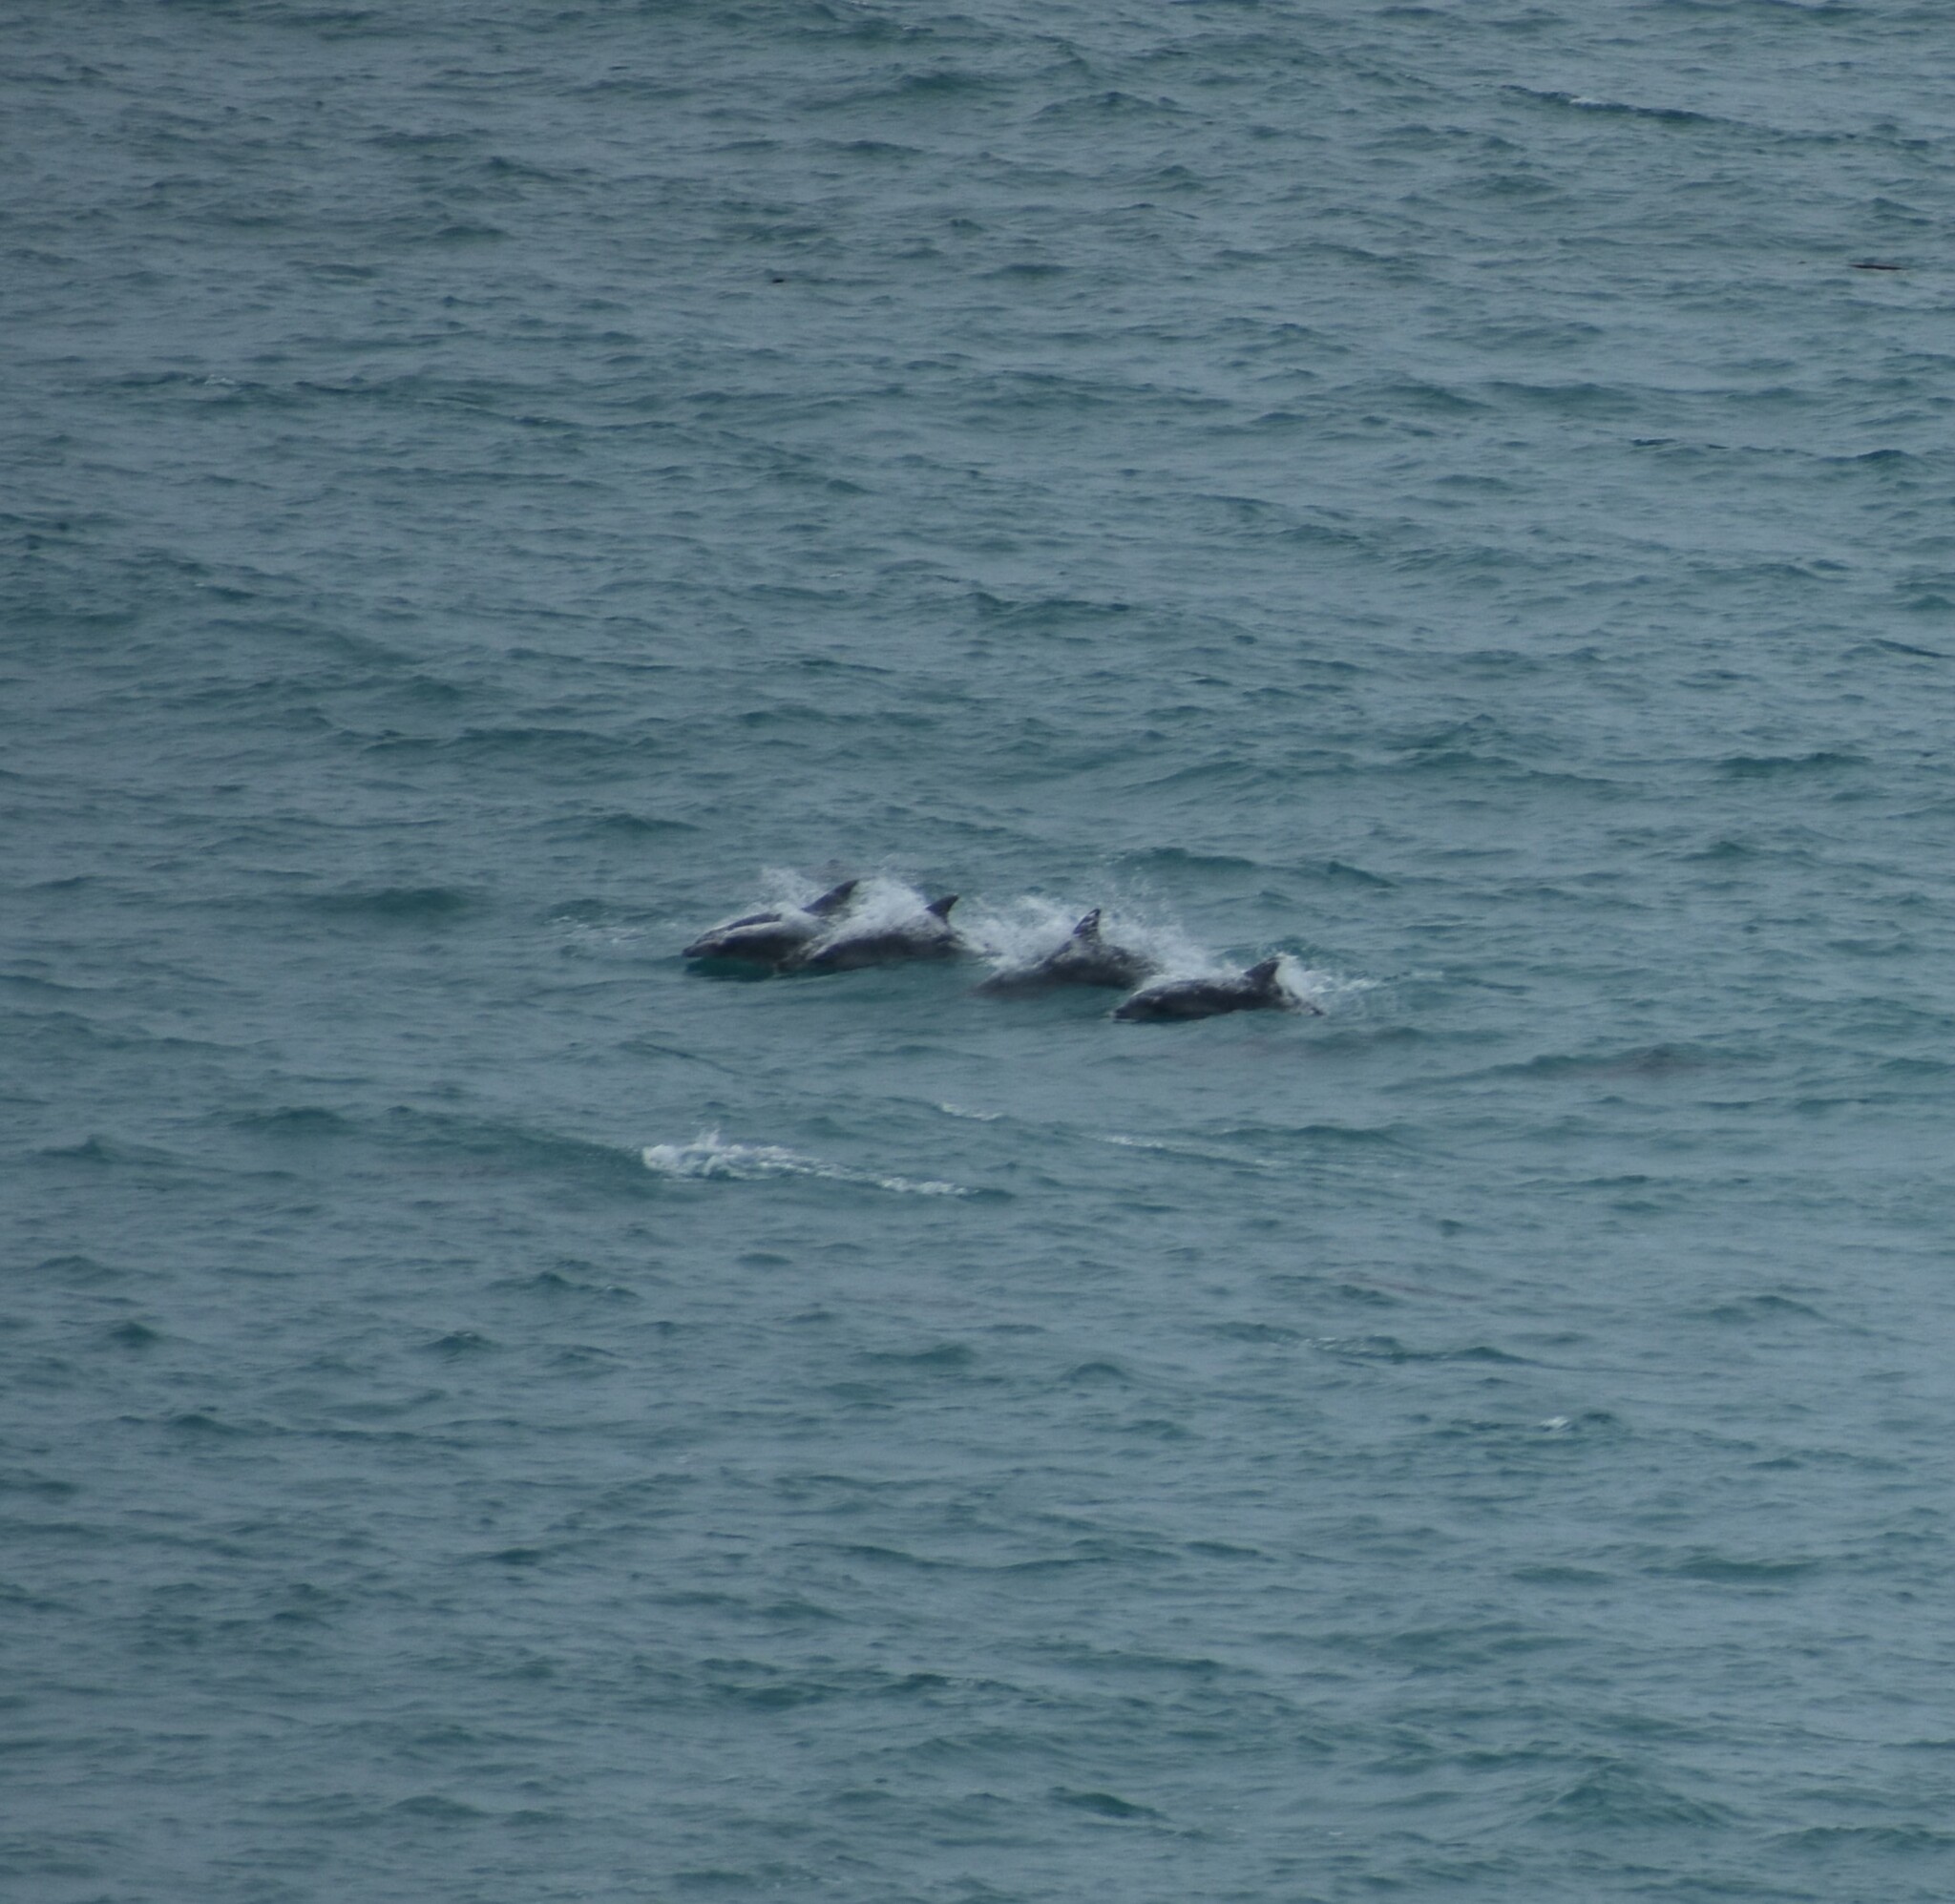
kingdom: Animalia
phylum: Chordata
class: Mammalia
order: Cetacea
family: Delphinidae
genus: Tursiops
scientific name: Tursiops aduncus
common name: Indo-pacific bottlenose dolphin
